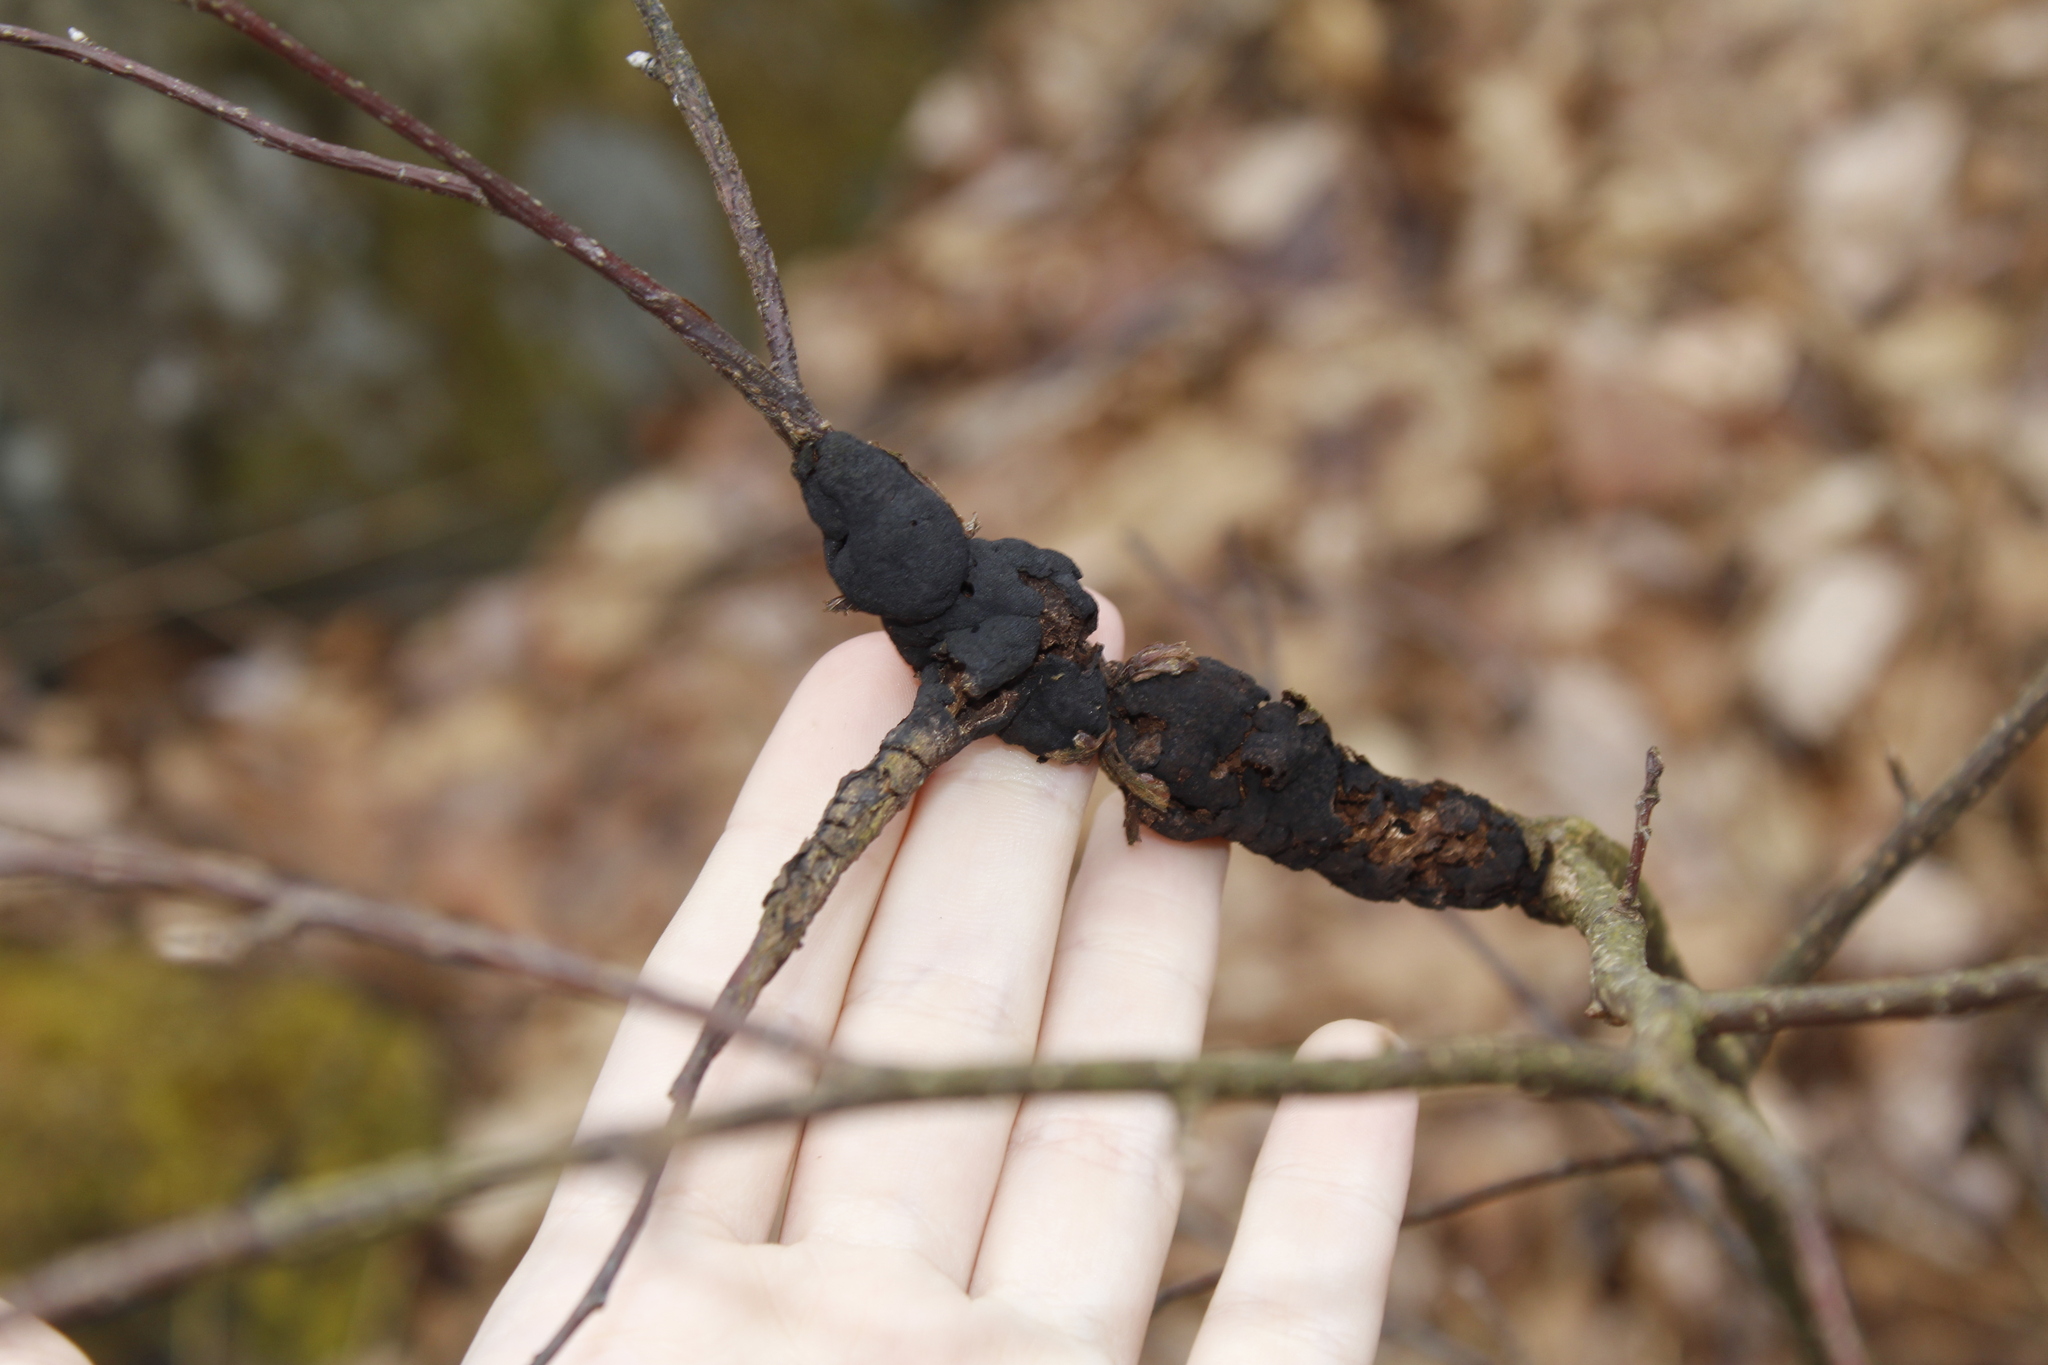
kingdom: Plantae
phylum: Tracheophyta
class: Magnoliopsida
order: Rosales
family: Rosaceae
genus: Prunus
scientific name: Prunus
